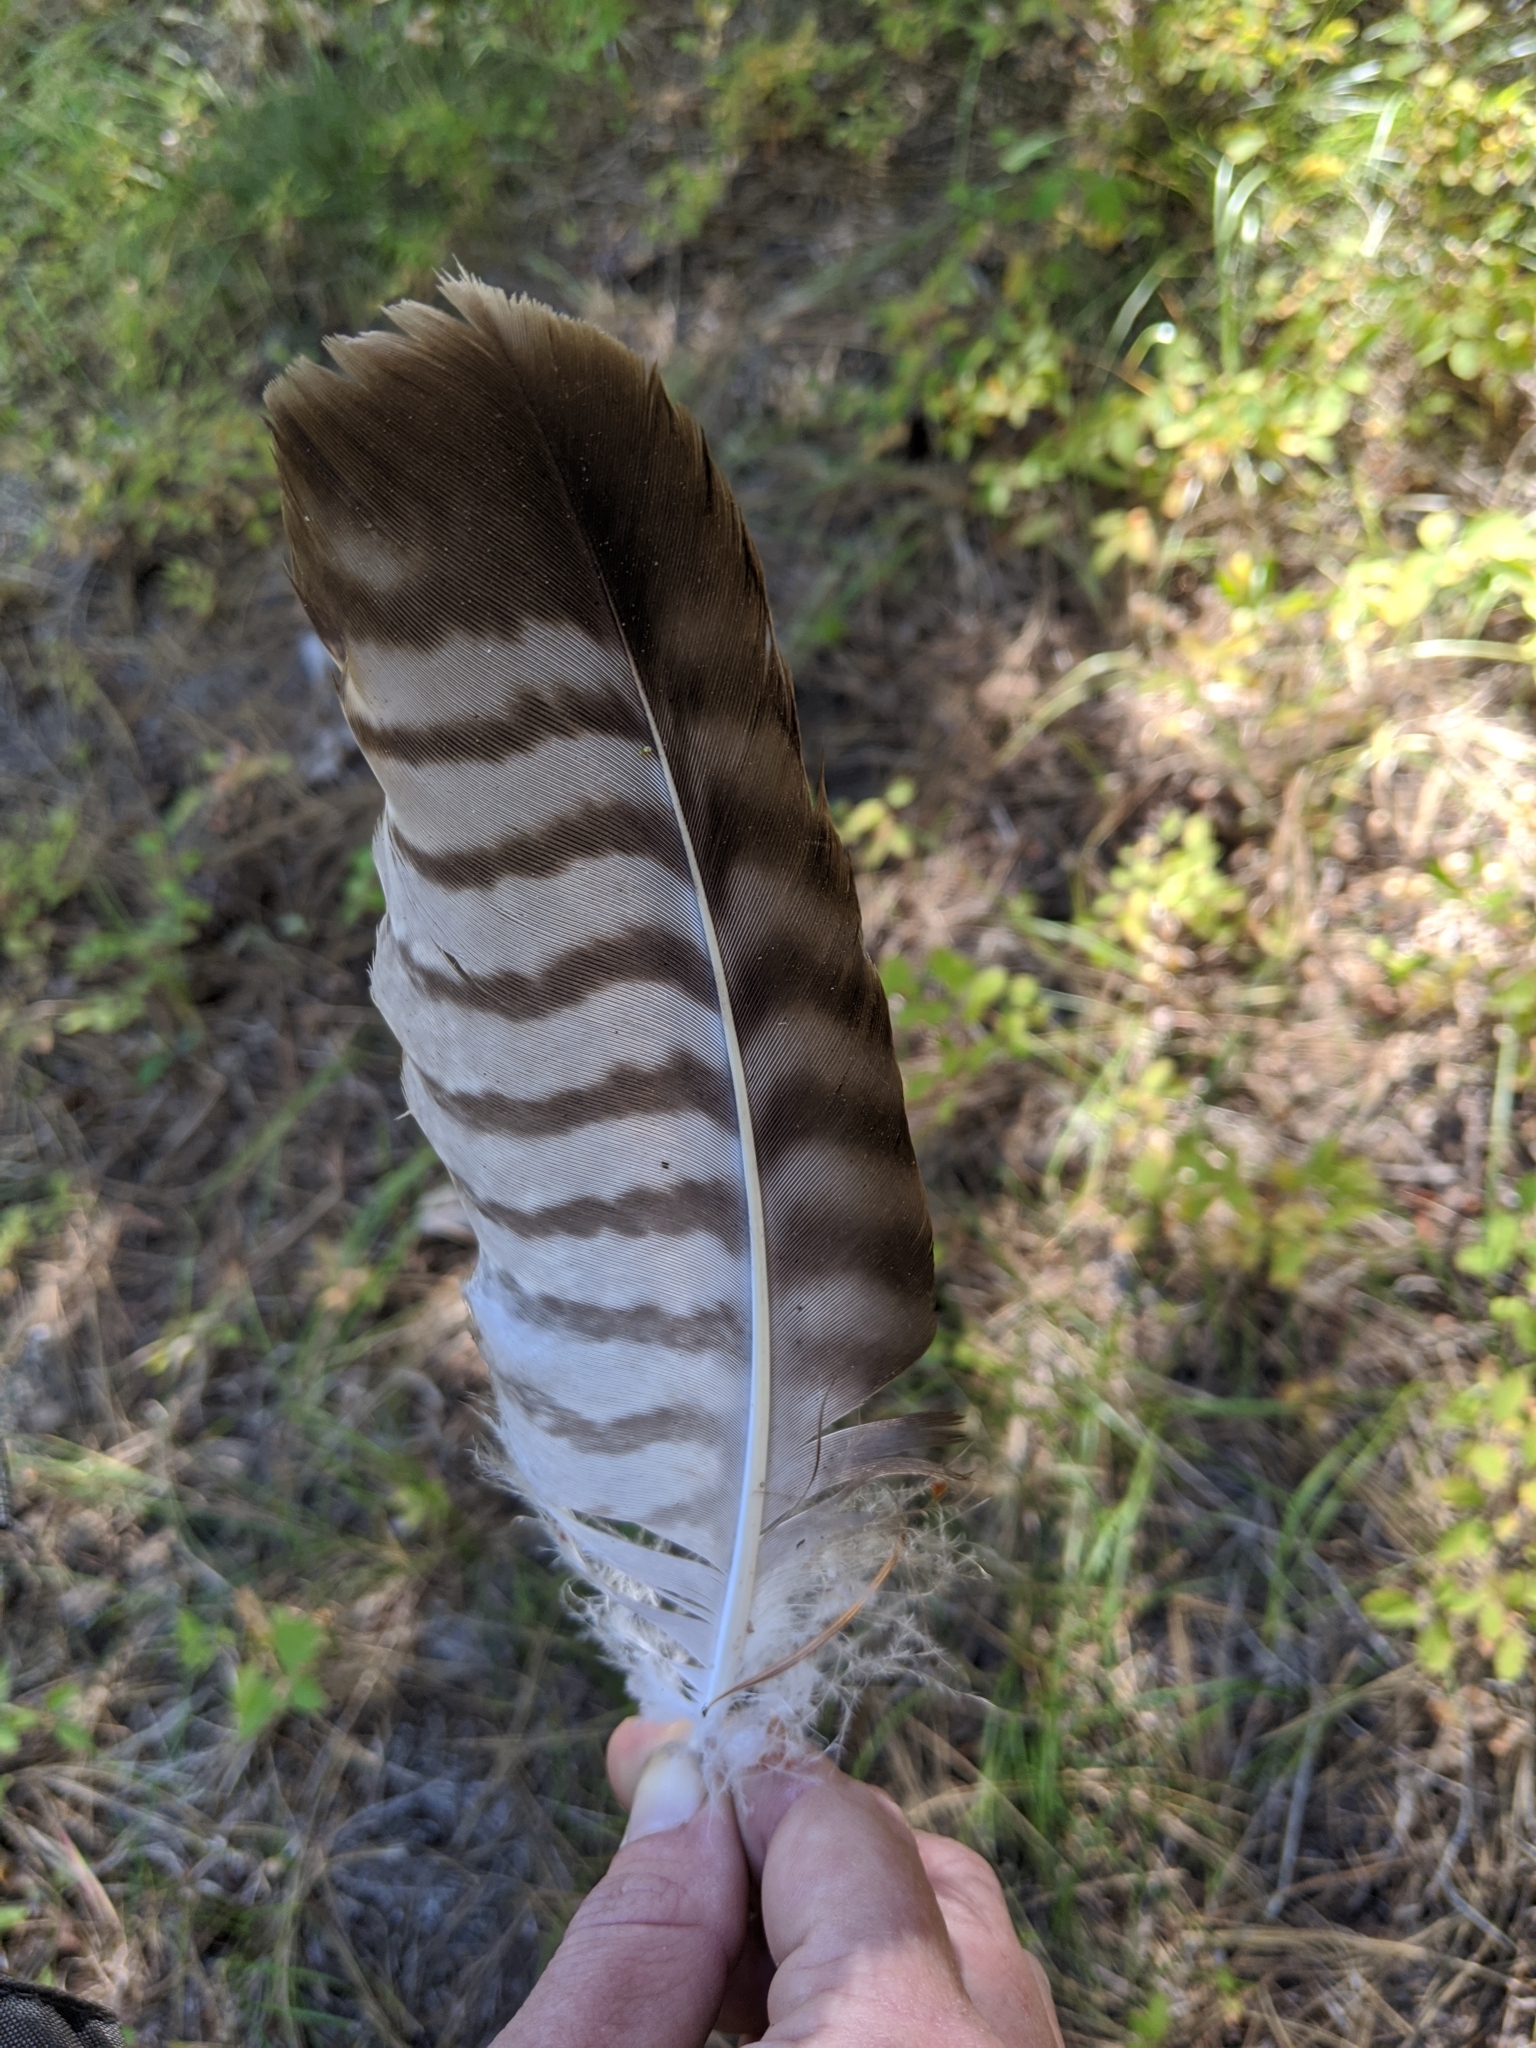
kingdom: Animalia
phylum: Chordata
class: Aves
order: Accipitriformes
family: Accipitridae
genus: Buteo
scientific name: Buteo jamaicensis
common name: Red-tailed hawk
